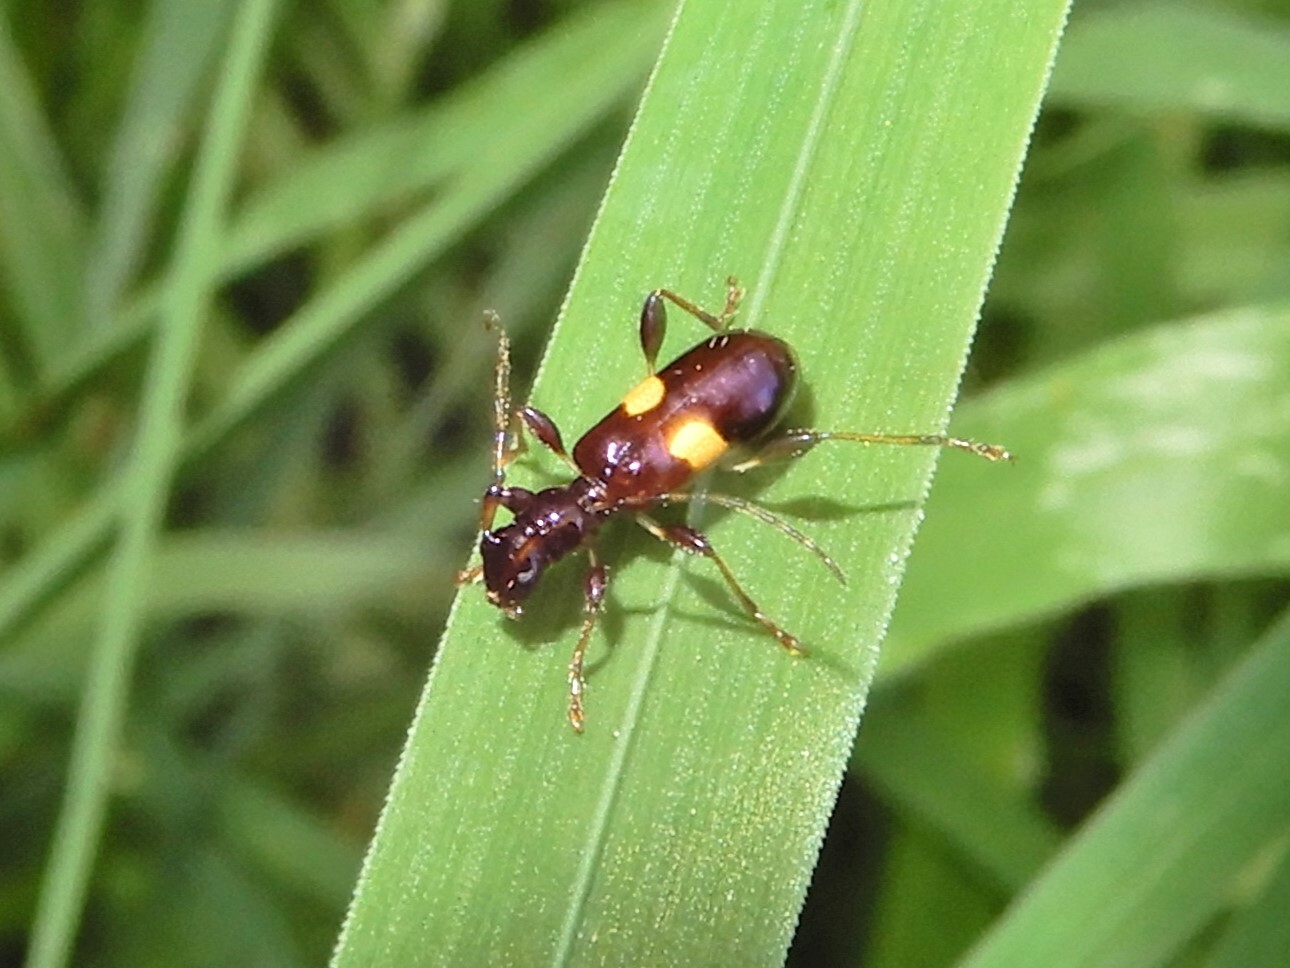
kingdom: Animalia
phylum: Arthropoda
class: Insecta
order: Coleoptera
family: Cerambycidae
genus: Zorion
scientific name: Zorion guttigerum
